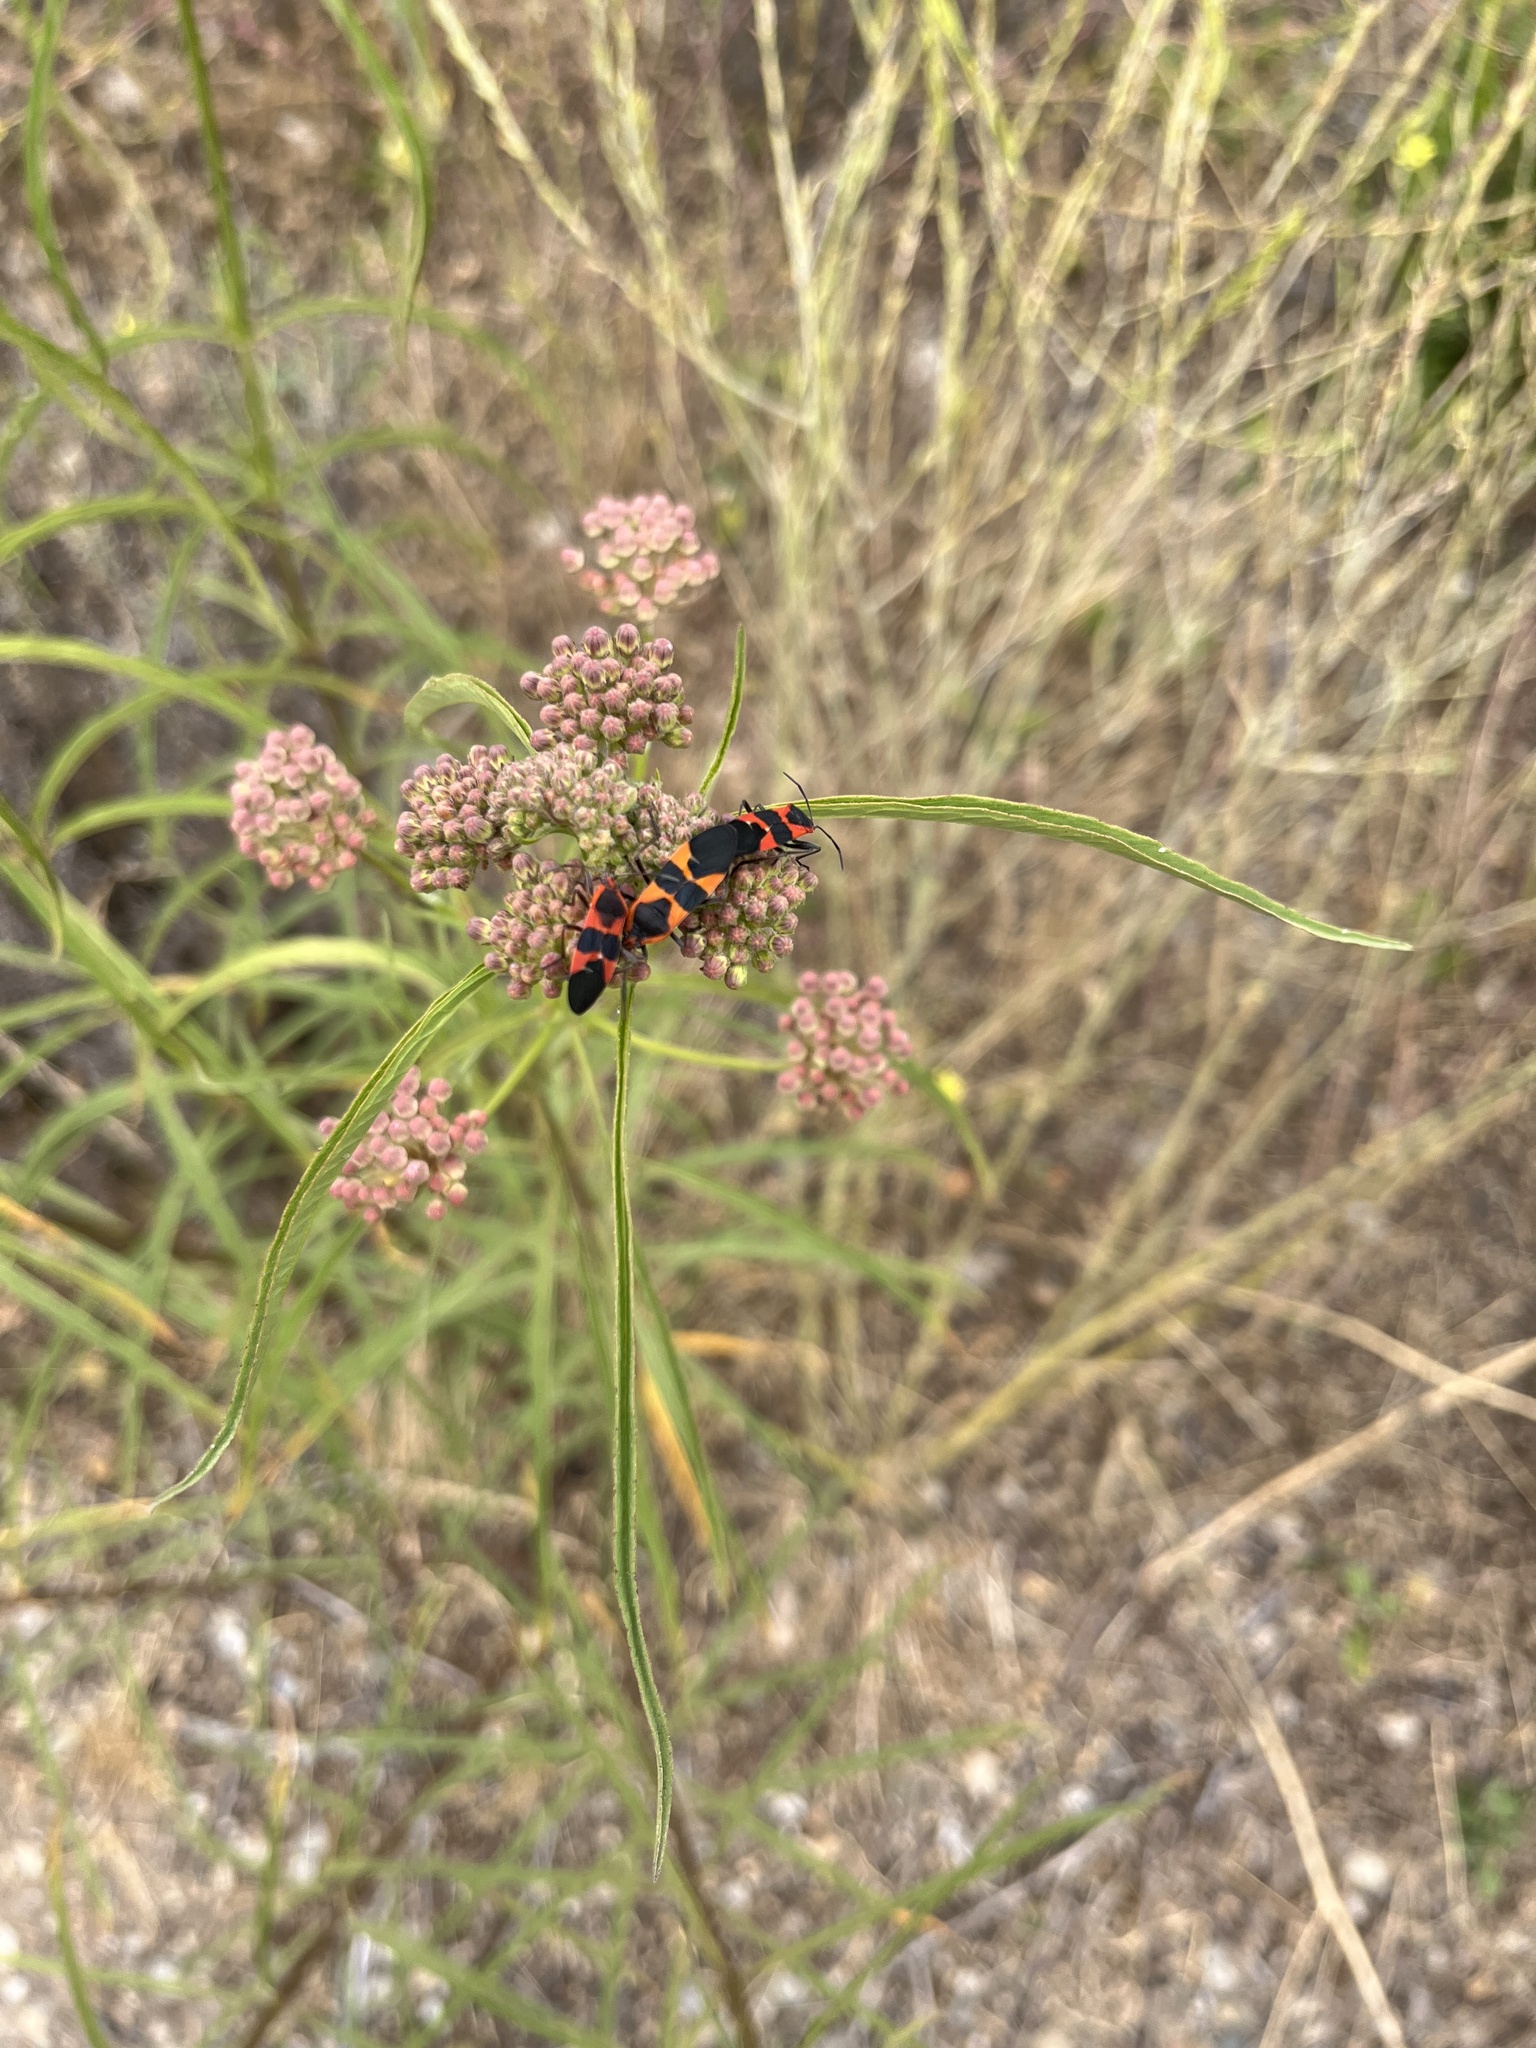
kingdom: Animalia
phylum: Arthropoda
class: Insecta
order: Hemiptera
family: Lygaeidae
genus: Oncopeltus
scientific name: Oncopeltus fasciatus
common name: Large milkweed bug
